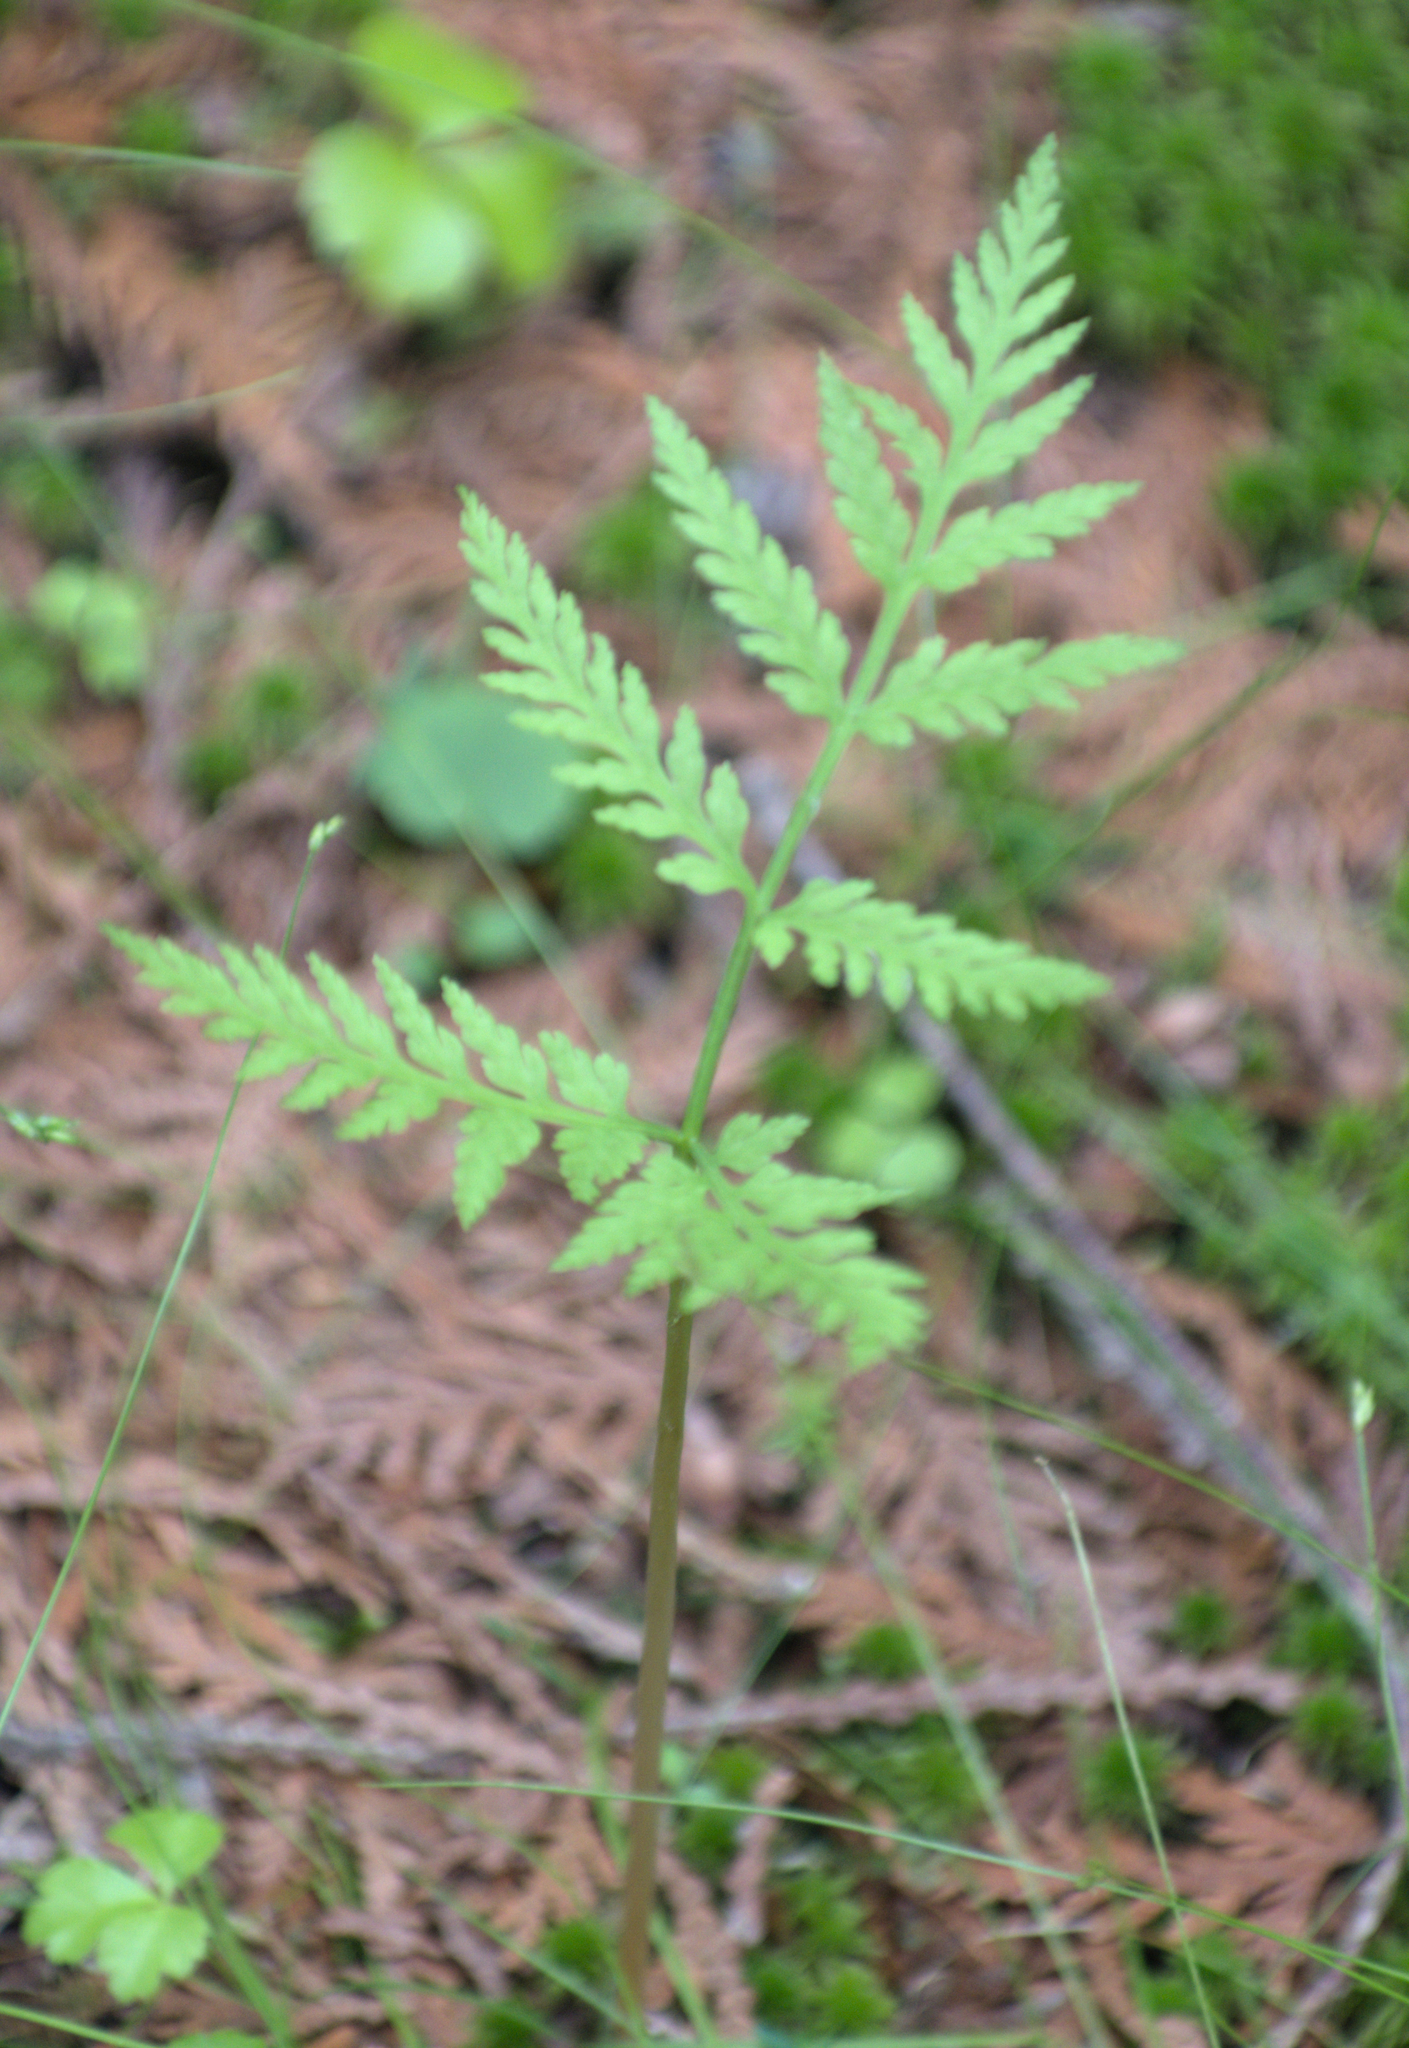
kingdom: Plantae
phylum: Tracheophyta
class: Polypodiopsida
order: Ophioglossales
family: Ophioglossaceae
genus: Botrypus
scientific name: Botrypus virginianus
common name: Common grapefern
